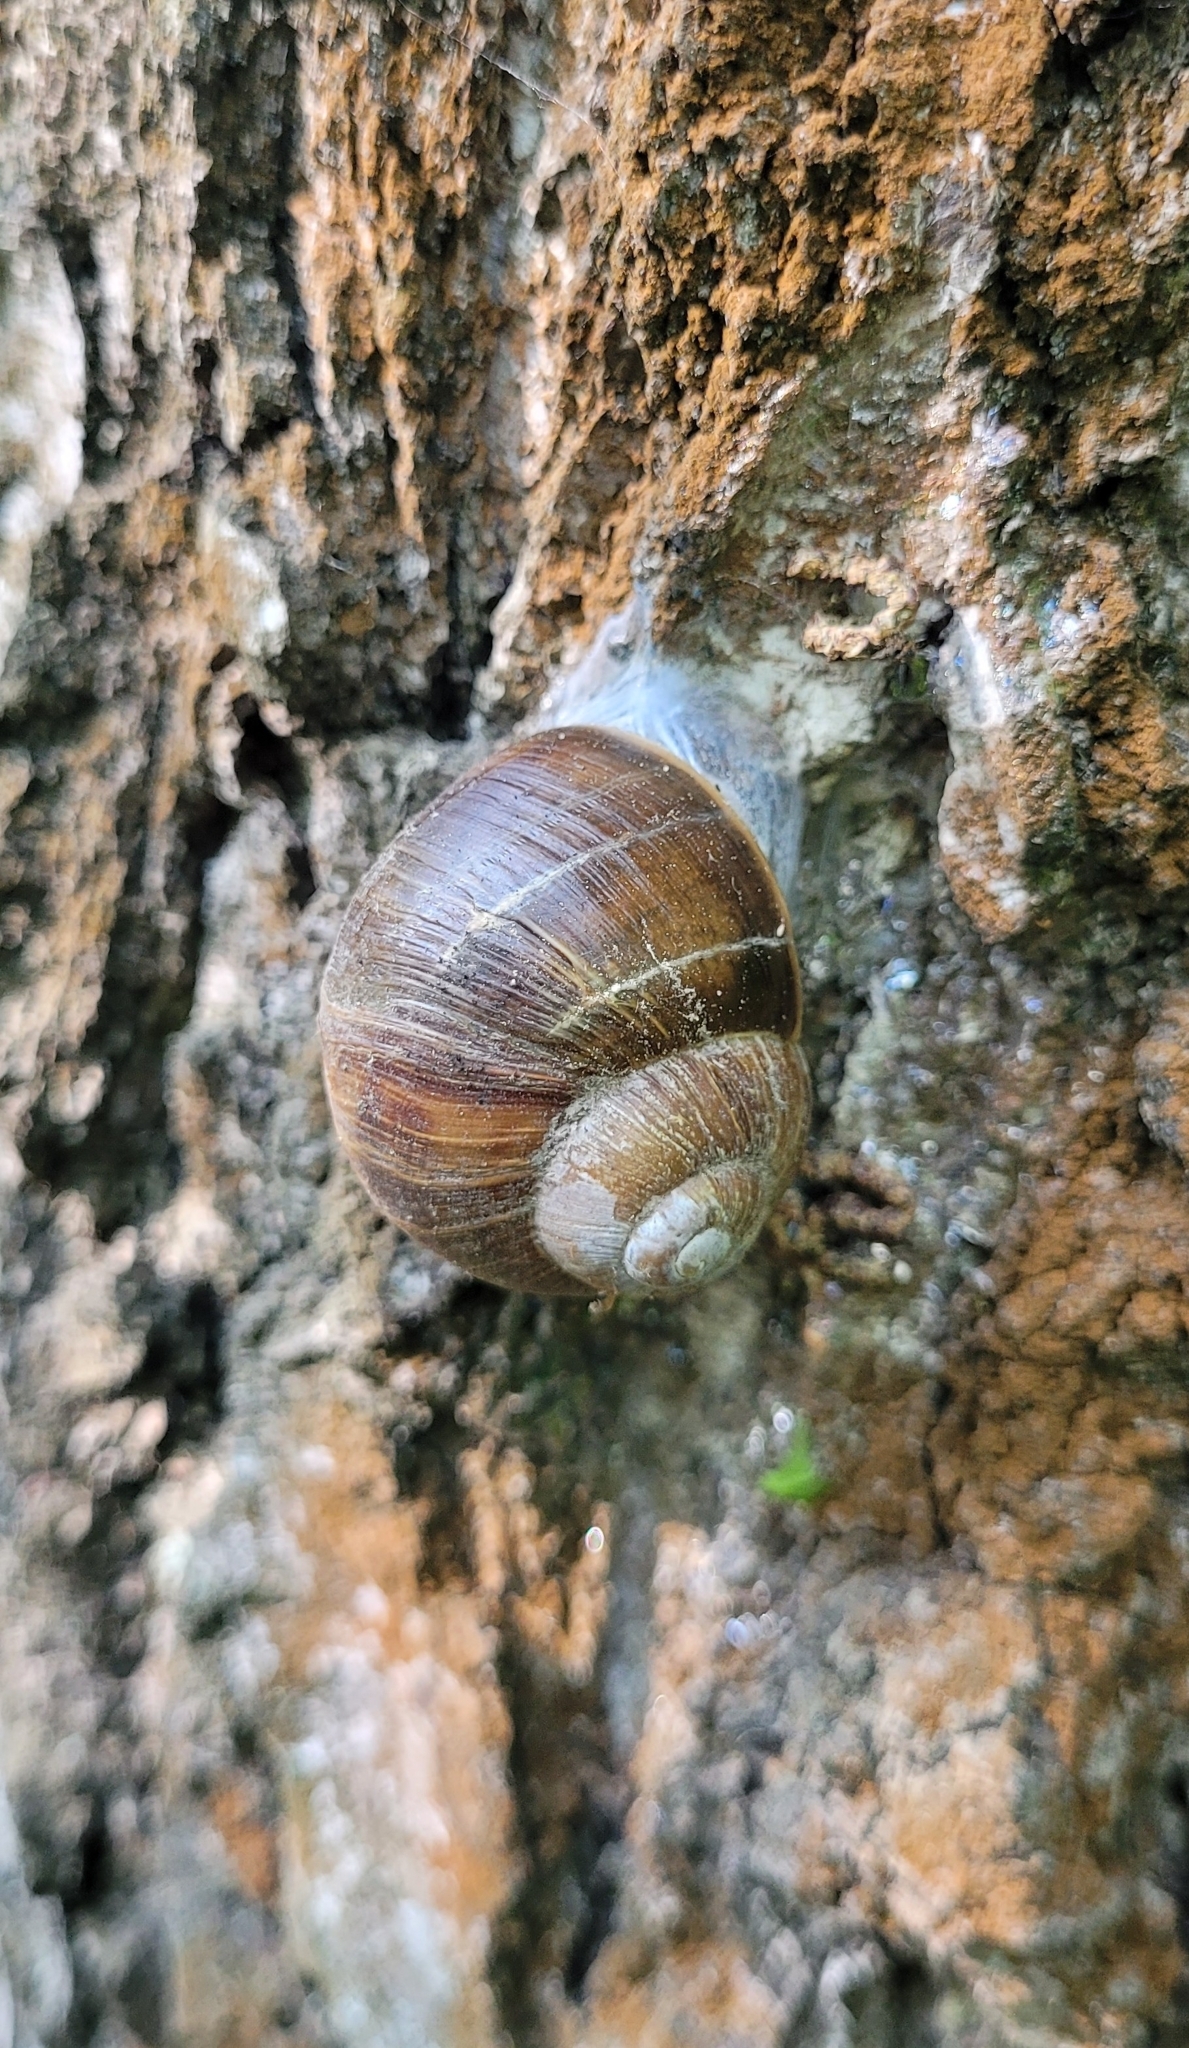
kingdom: Animalia
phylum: Mollusca
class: Gastropoda
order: Stylommatophora
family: Helicidae
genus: Helix
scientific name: Helix pomatia
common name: Roman snail
